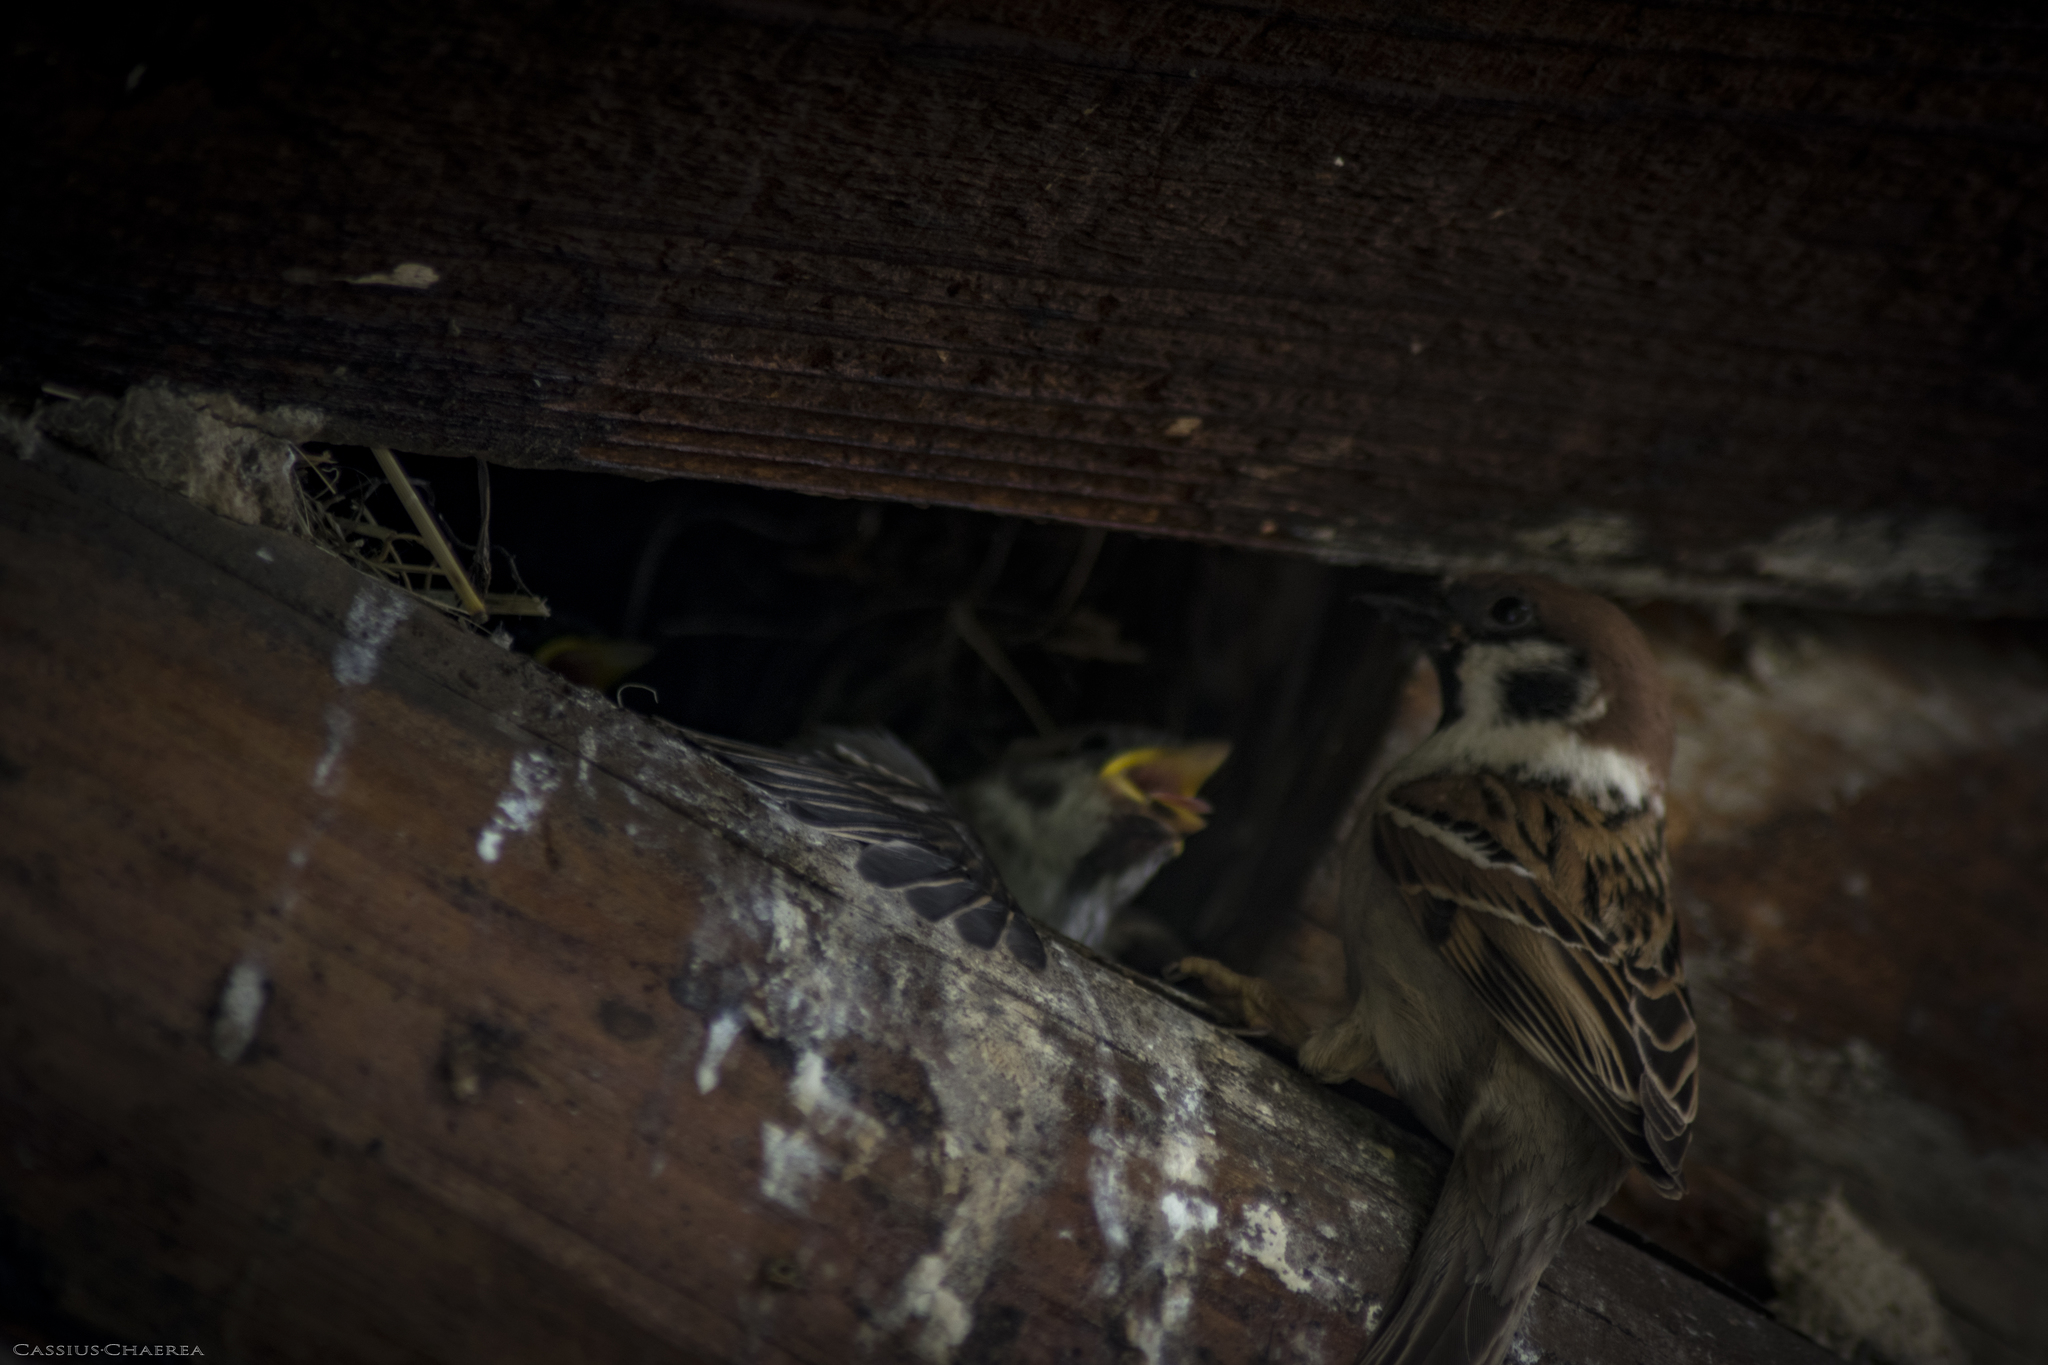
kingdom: Animalia
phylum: Chordata
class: Aves
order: Passeriformes
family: Passeridae
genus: Passer
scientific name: Passer montanus
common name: Eurasian tree sparrow
